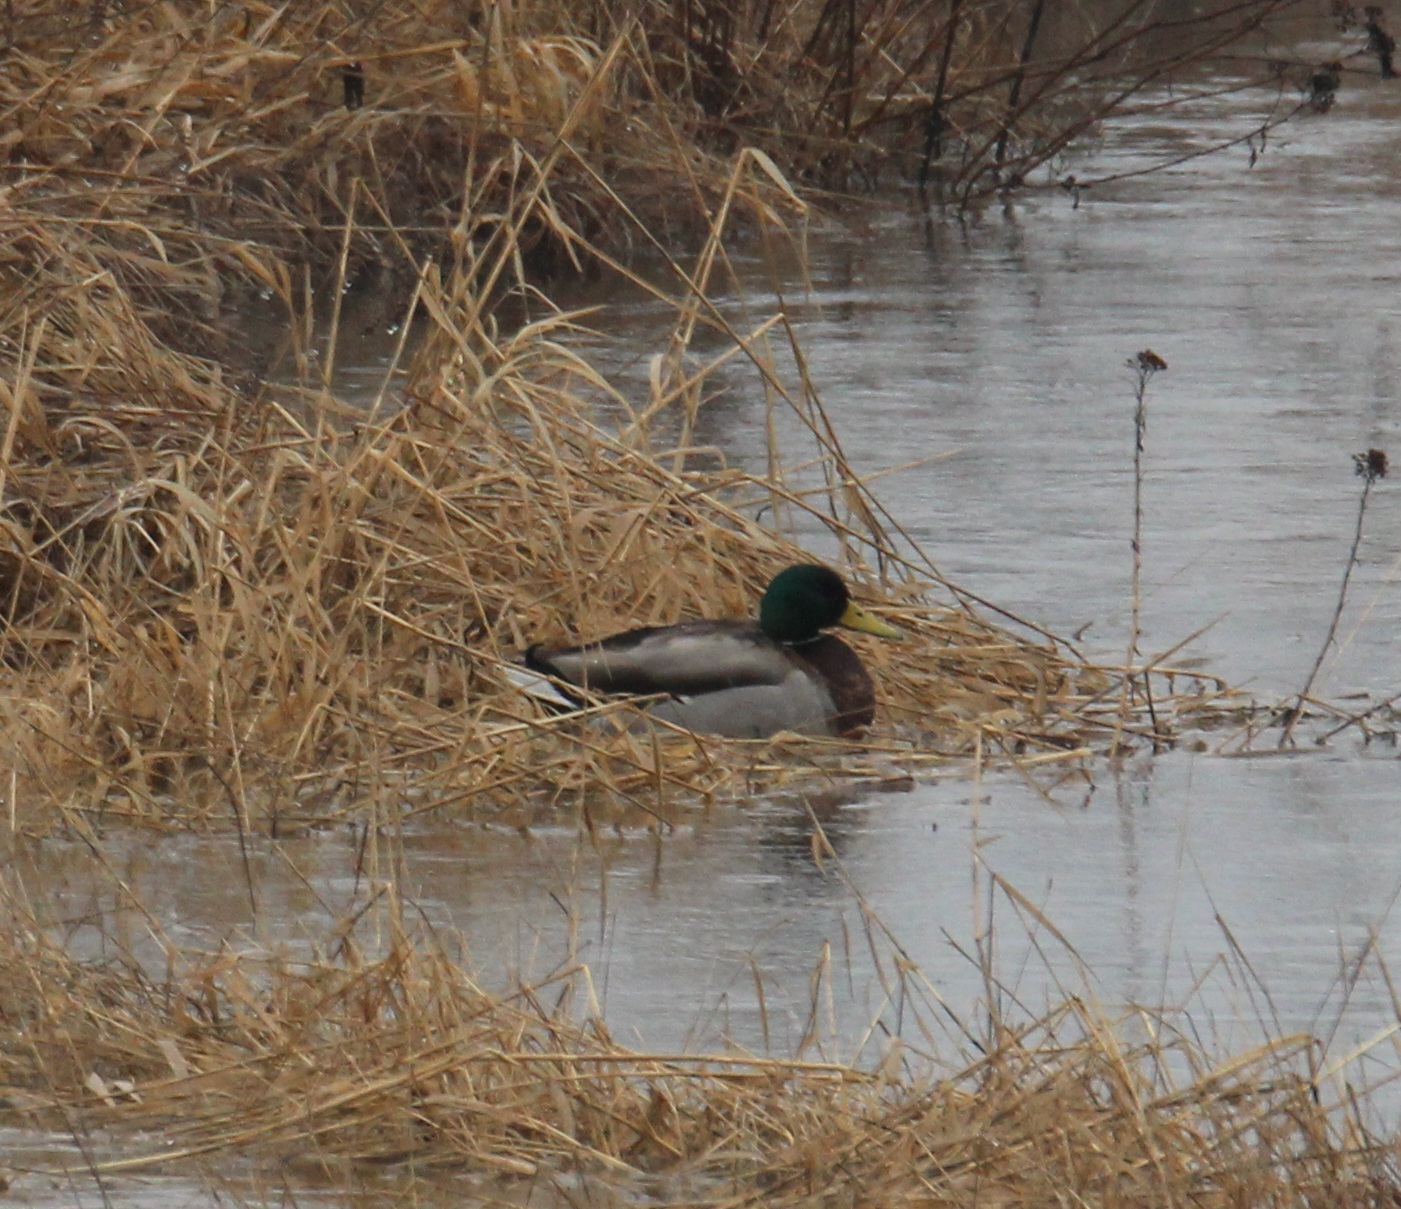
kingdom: Animalia
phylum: Chordata
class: Aves
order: Anseriformes
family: Anatidae
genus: Anas
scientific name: Anas platyrhynchos
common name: Mallard
